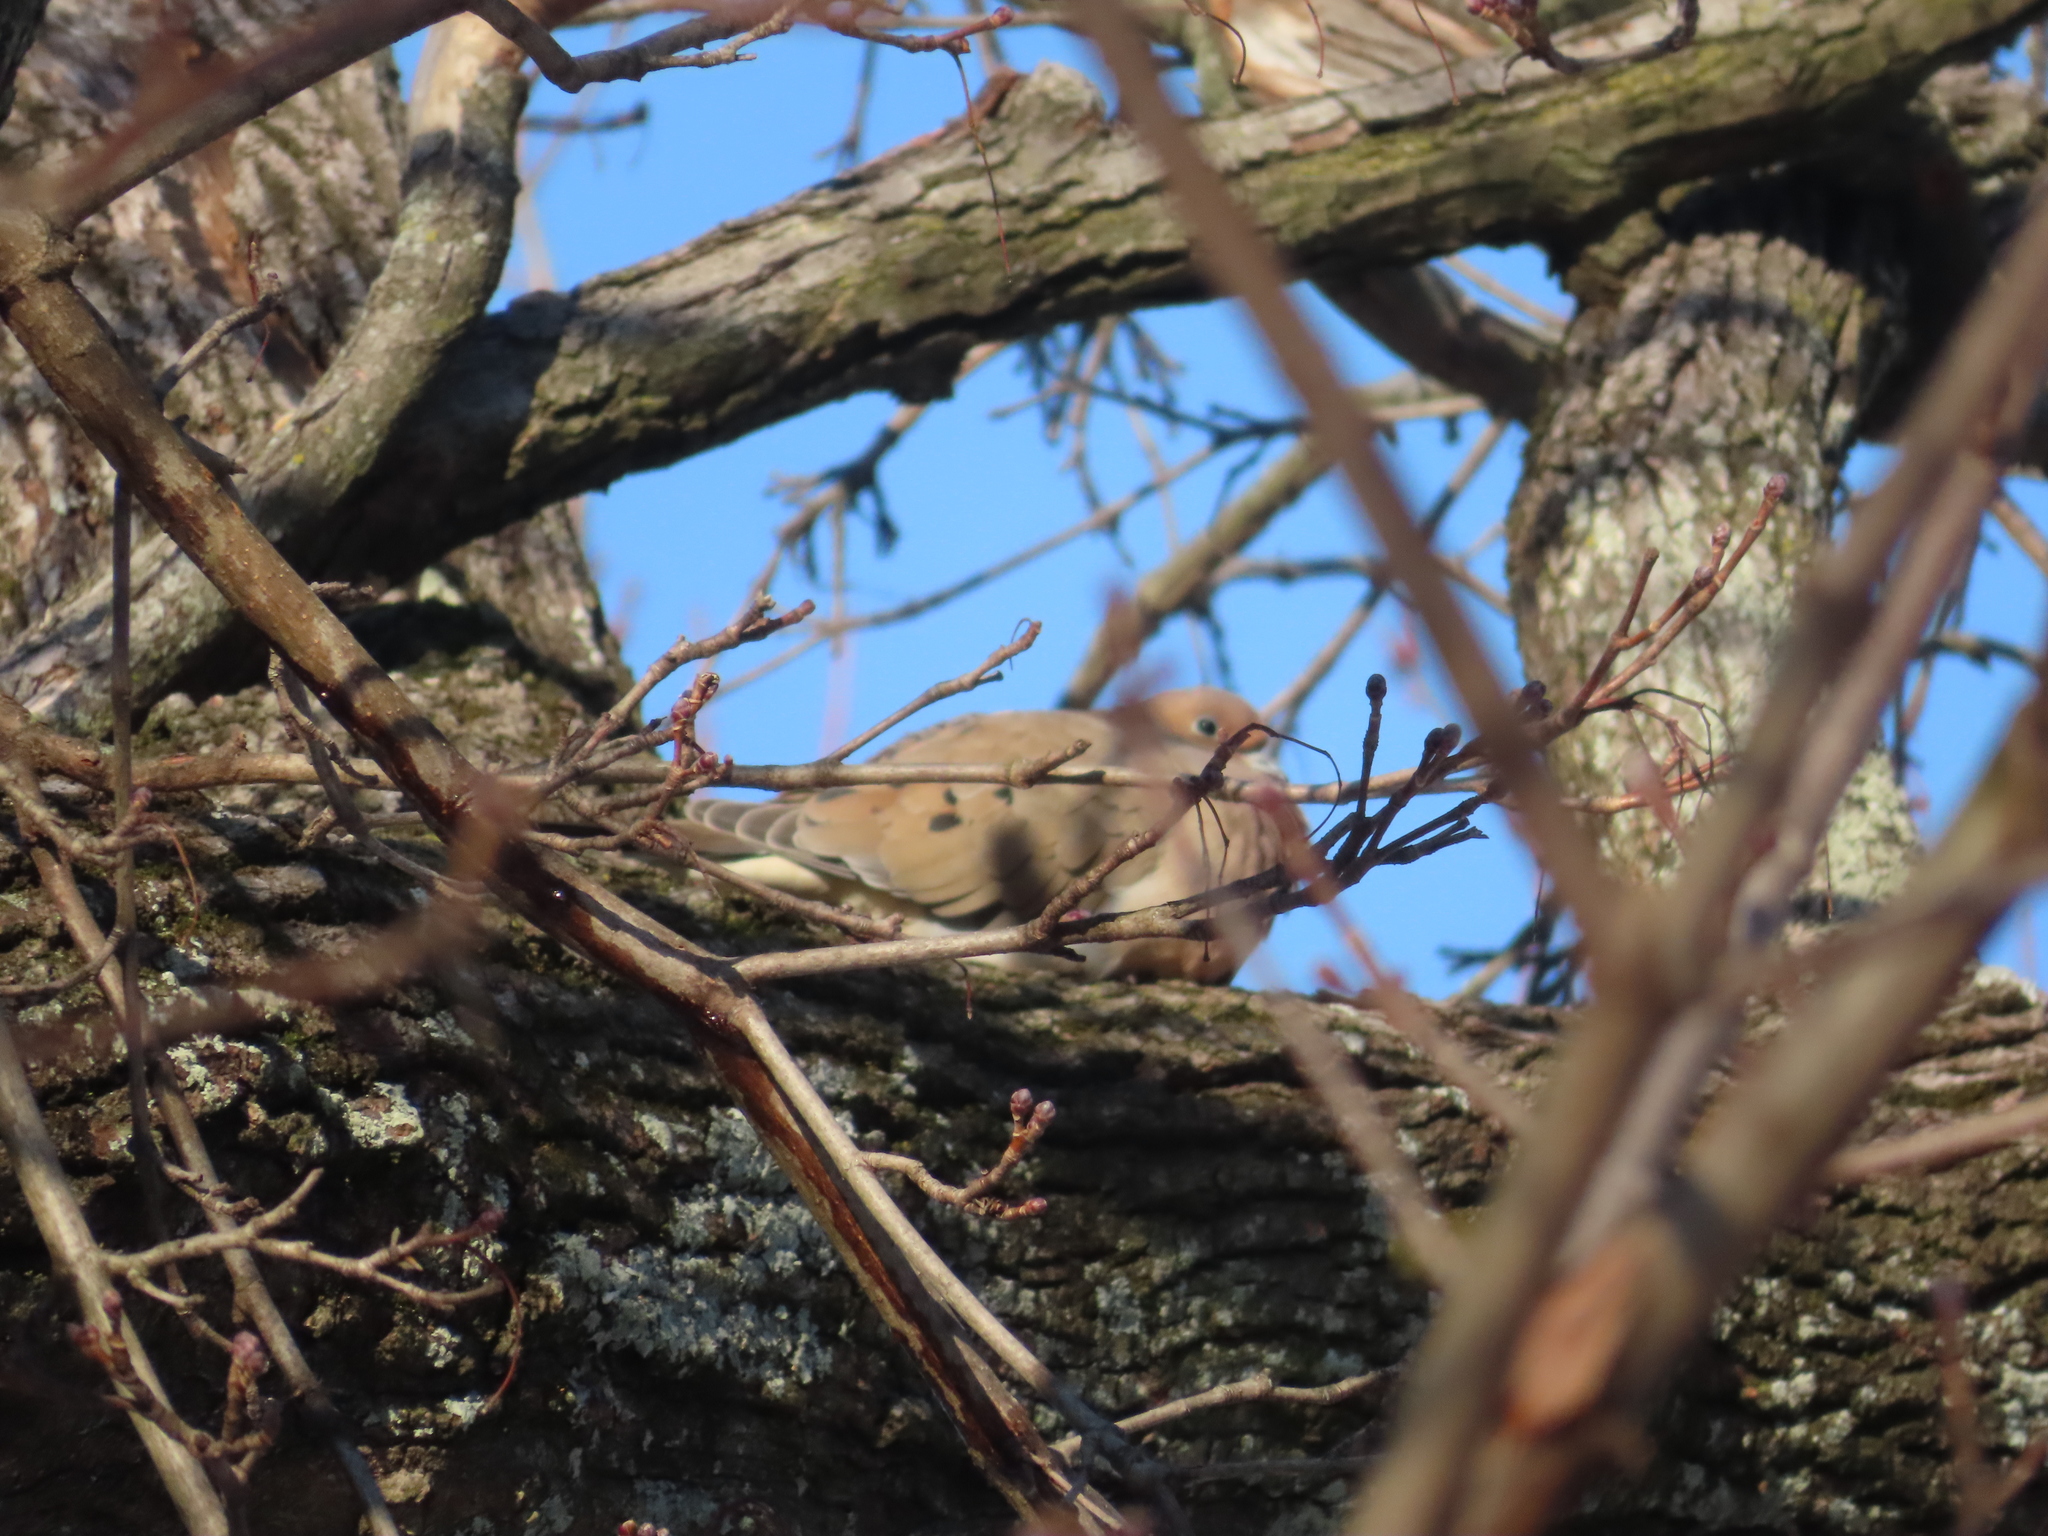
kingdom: Animalia
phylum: Chordata
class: Aves
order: Columbiformes
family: Columbidae
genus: Zenaida
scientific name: Zenaida macroura
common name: Mourning dove
